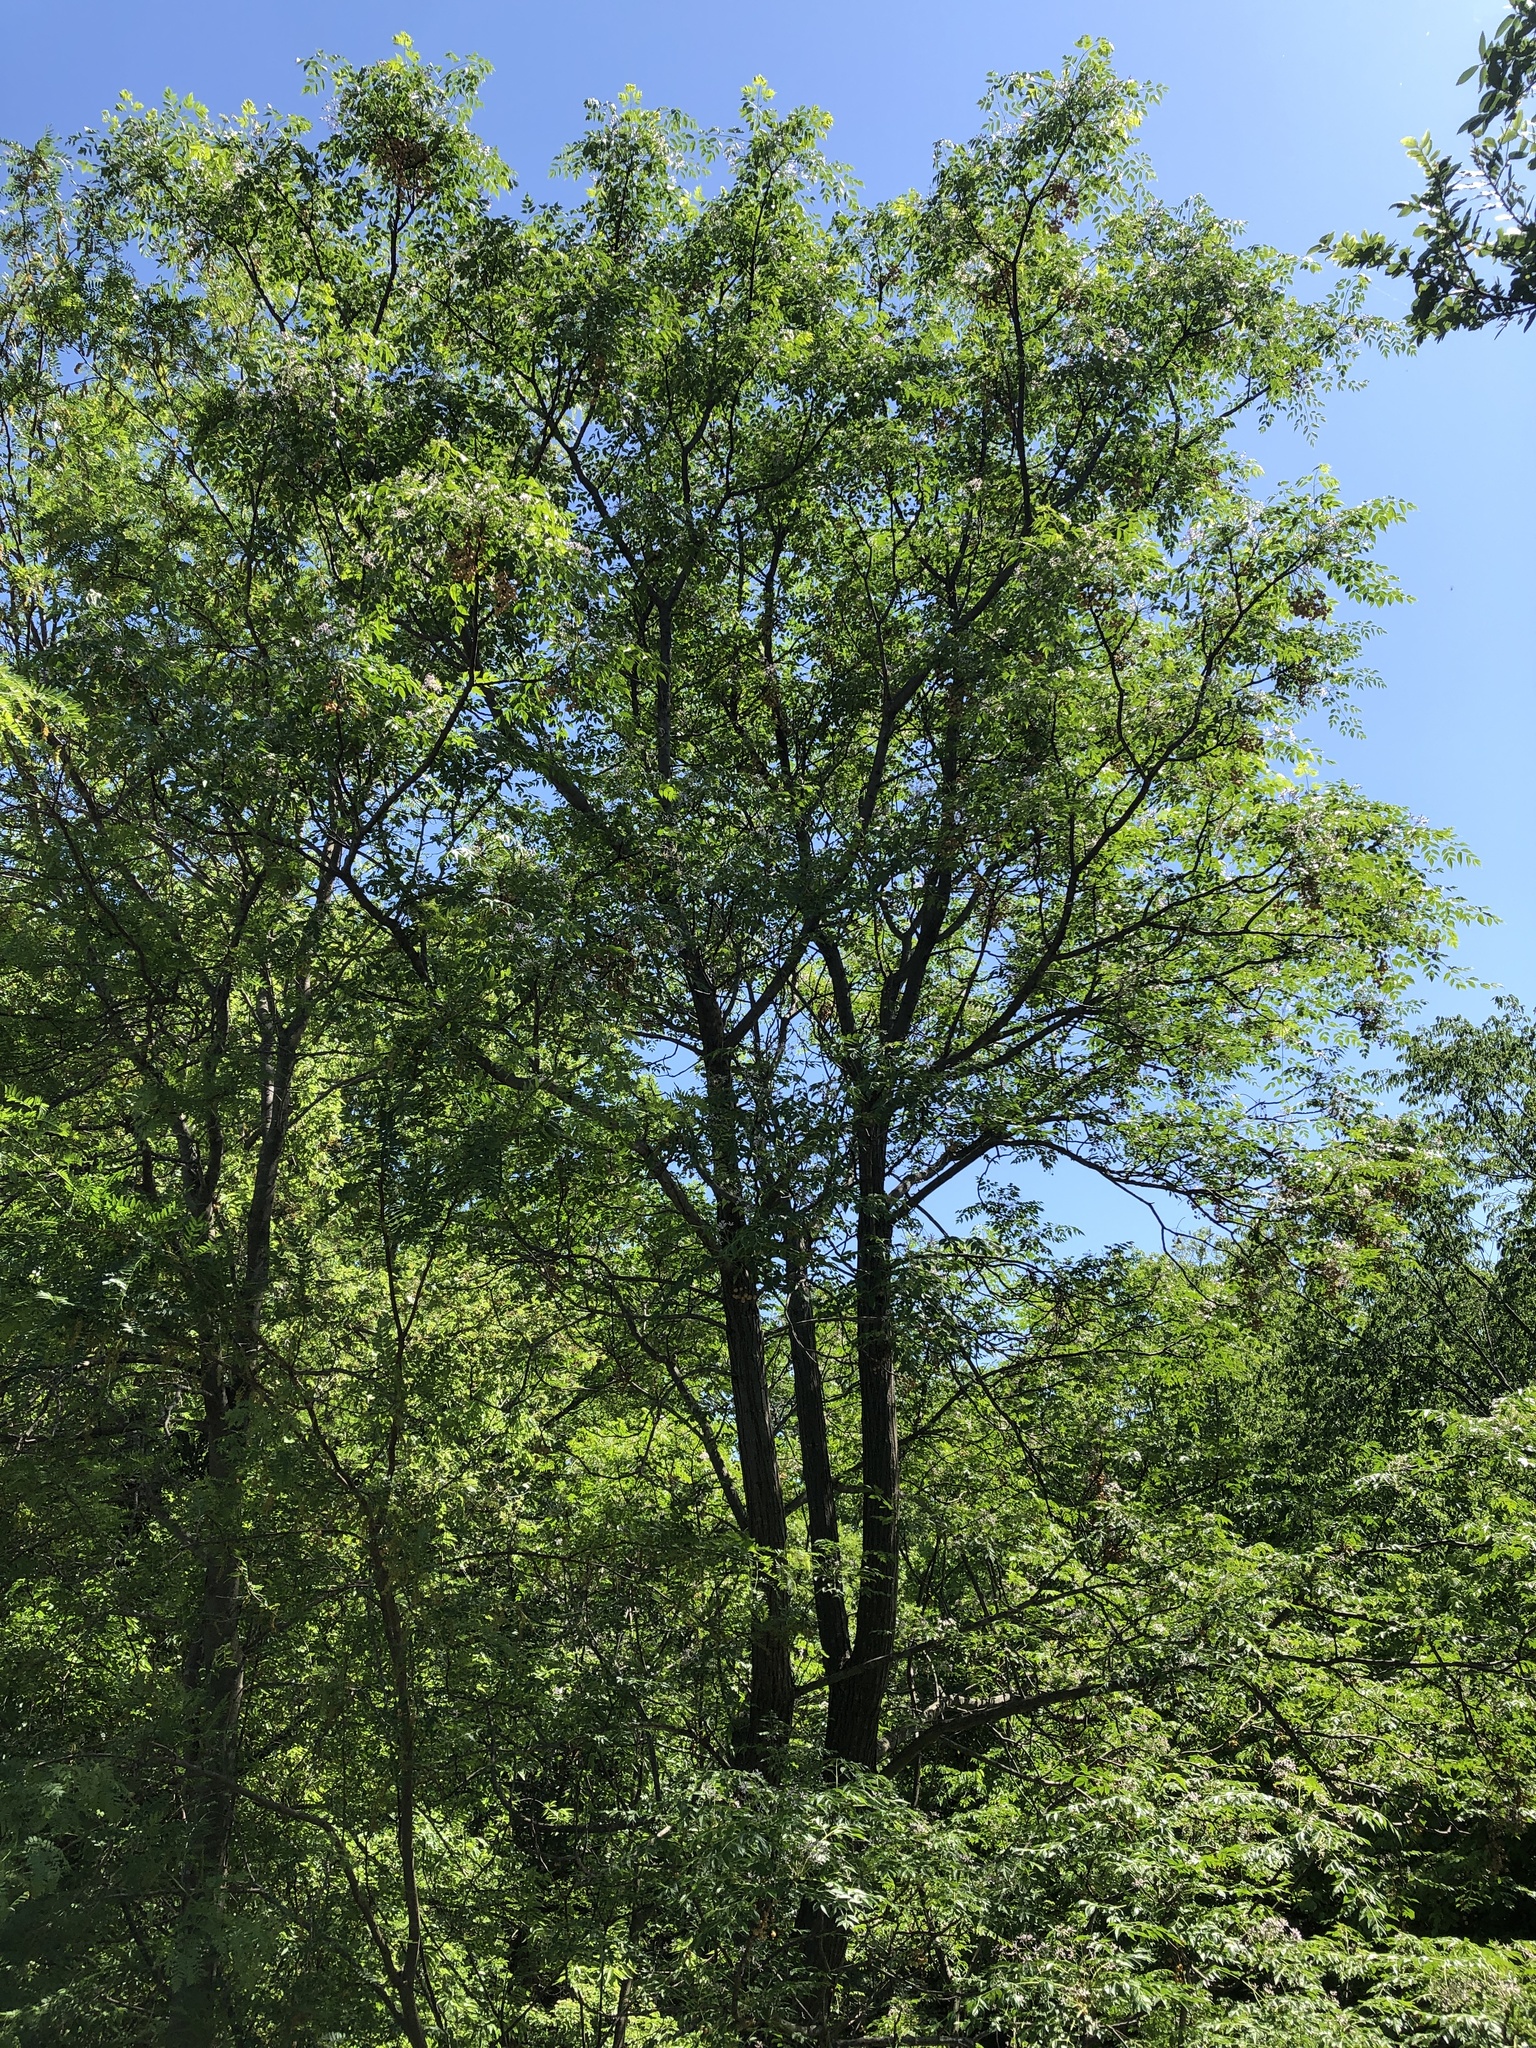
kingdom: Plantae
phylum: Tracheophyta
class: Magnoliopsida
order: Sapindales
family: Meliaceae
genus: Melia
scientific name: Melia azedarach
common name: Chinaberrytree
